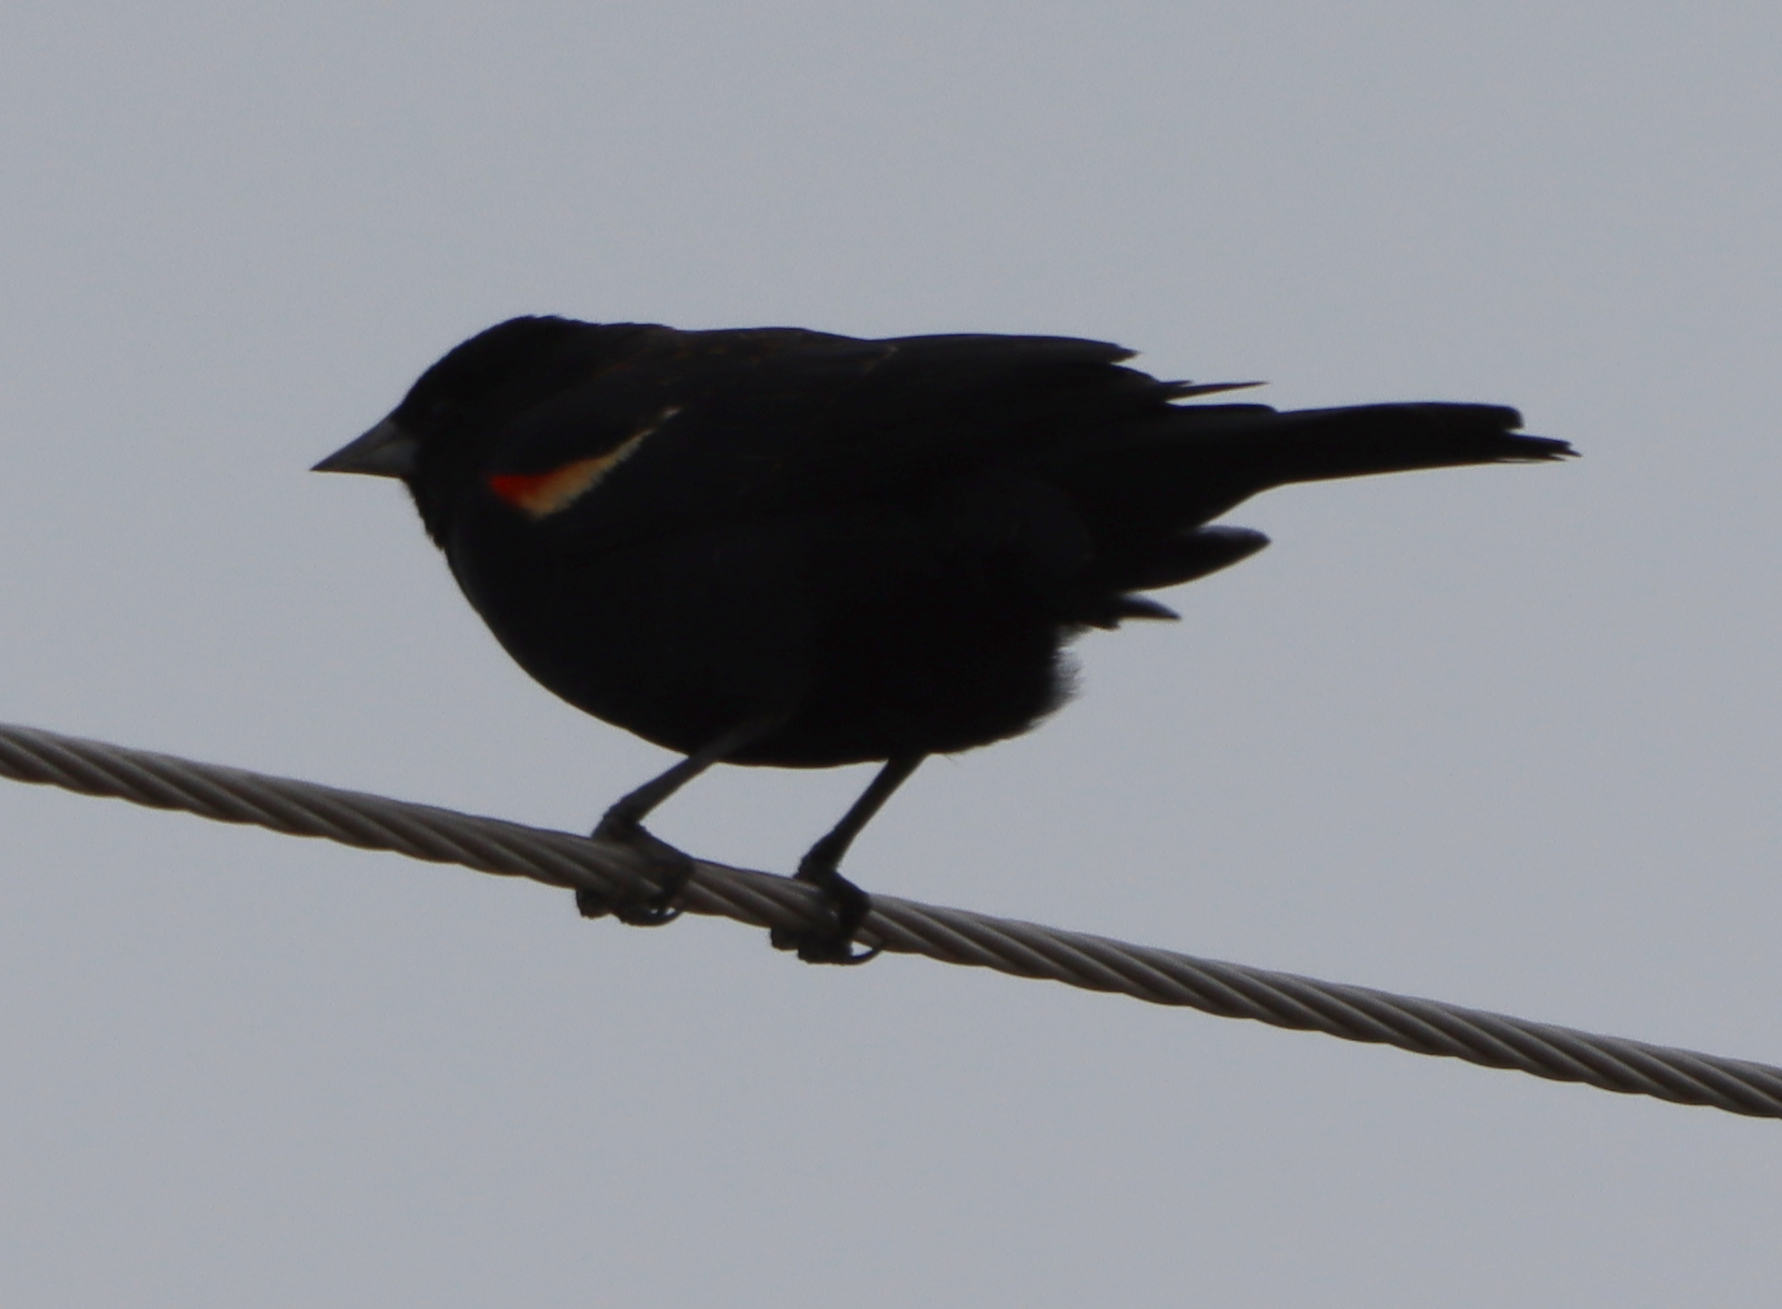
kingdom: Animalia
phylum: Chordata
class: Aves
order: Passeriformes
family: Icteridae
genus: Agelaius
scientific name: Agelaius phoeniceus
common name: Red-winged blackbird
